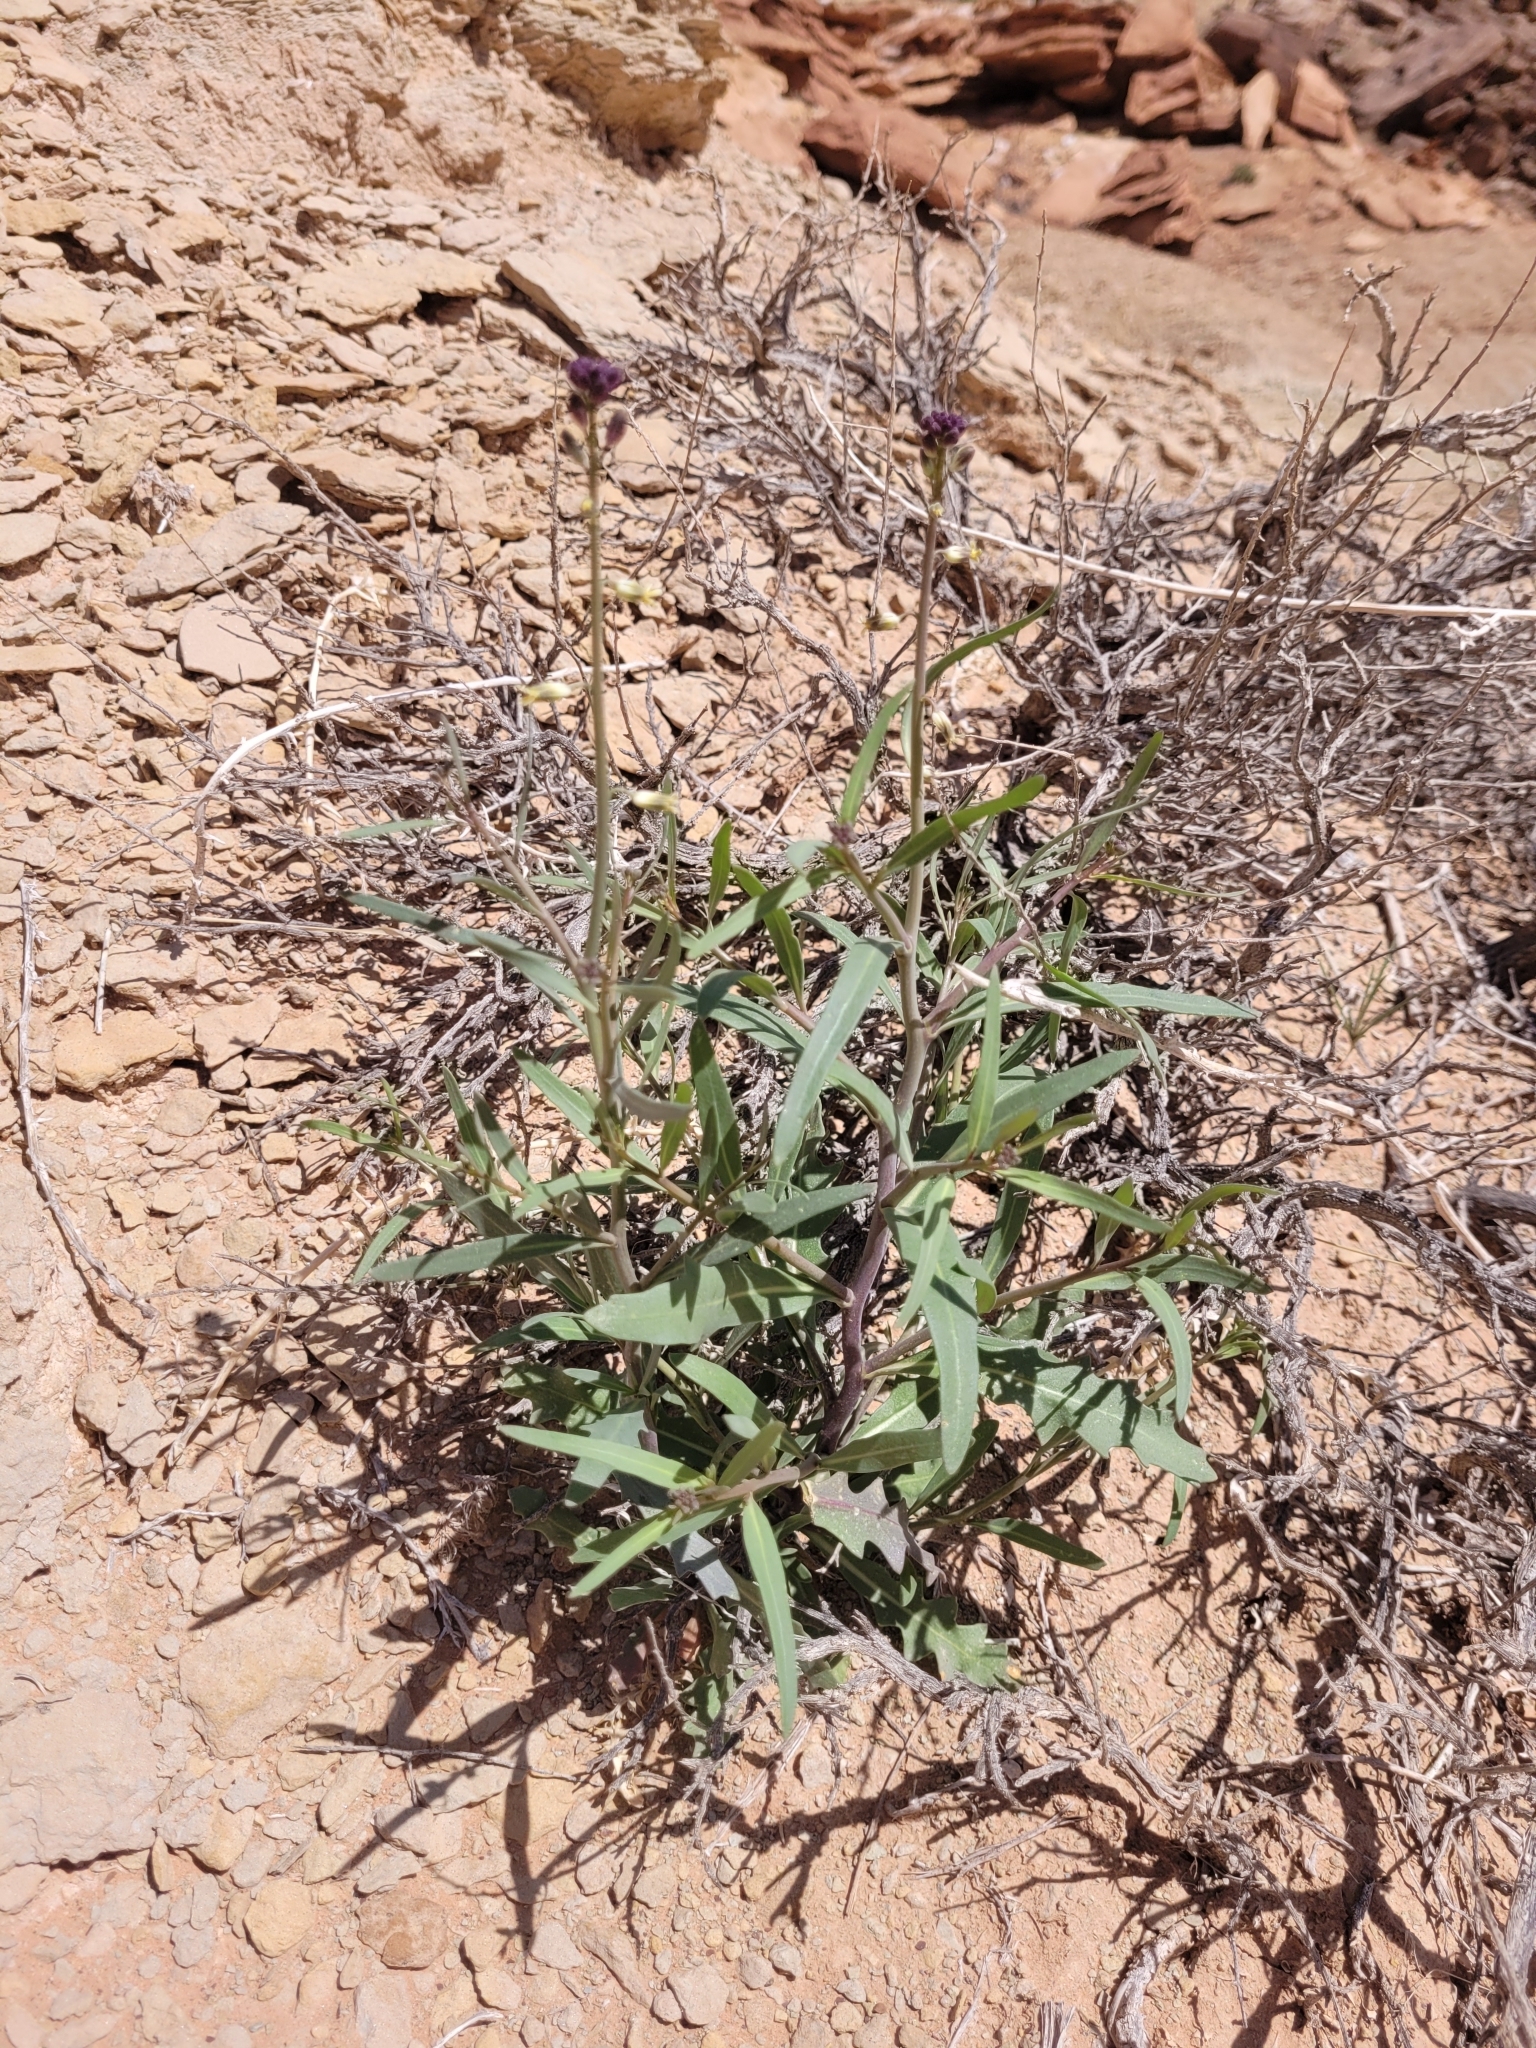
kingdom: Plantae
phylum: Tracheophyta
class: Magnoliopsida
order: Brassicales
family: Brassicaceae
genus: Streptanthus
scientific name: Streptanthus longirostris
